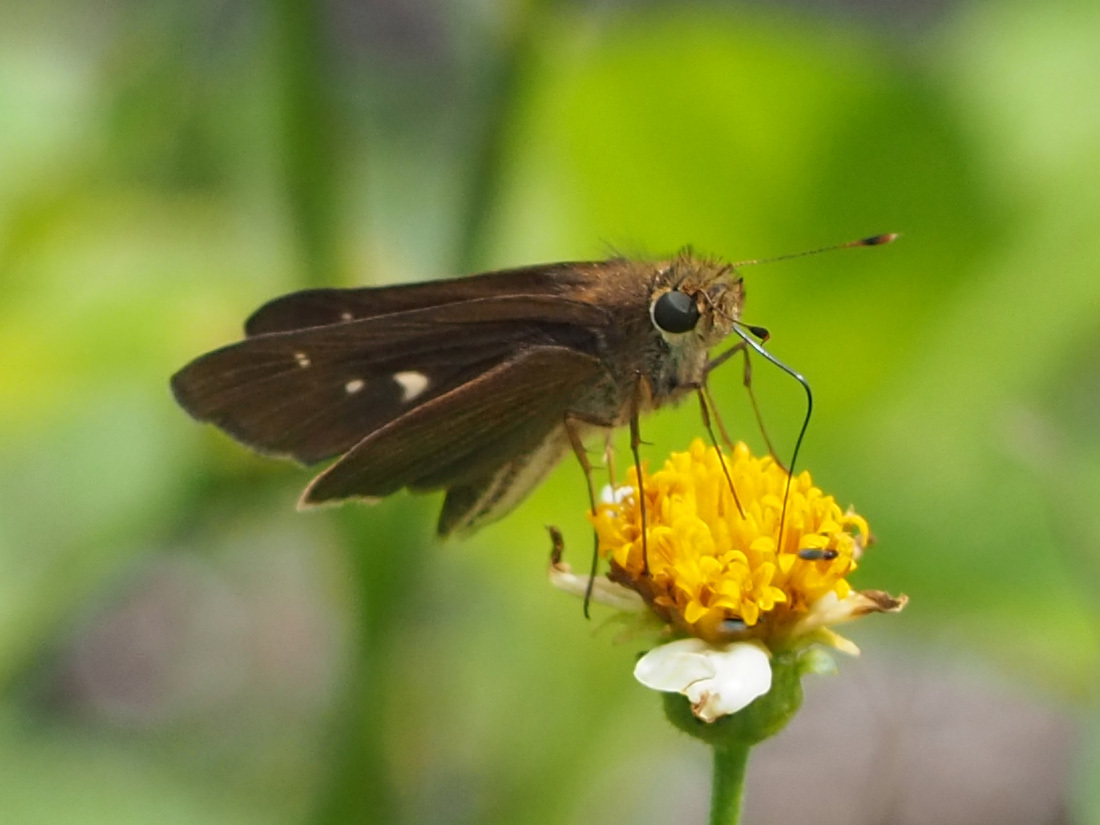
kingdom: Animalia
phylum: Arthropoda
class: Insecta
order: Lepidoptera
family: Hesperiidae
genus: Panoquina
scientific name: Panoquina ocola
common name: Ocola skipper
